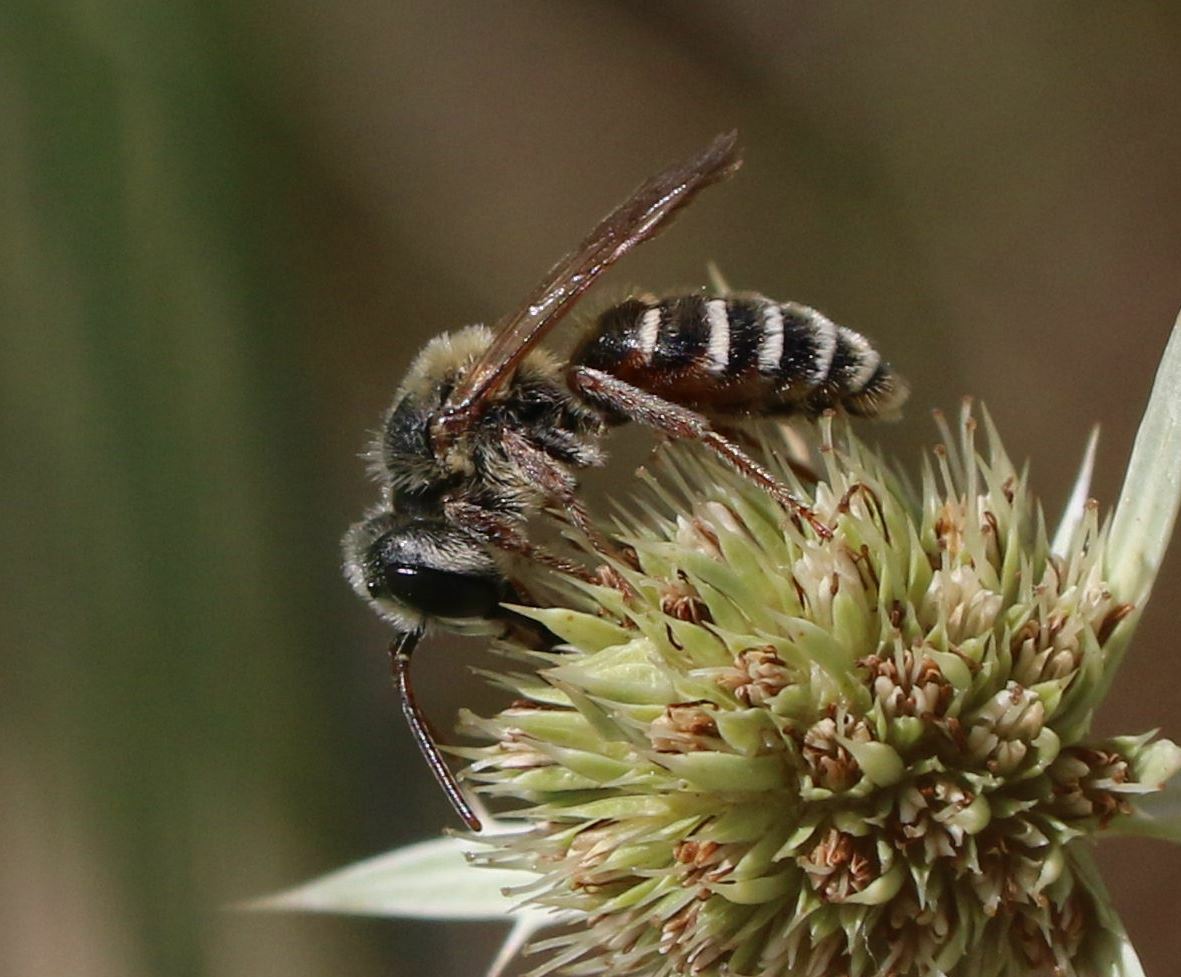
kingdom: Animalia
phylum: Arthropoda
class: Insecta
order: Hymenoptera
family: Andrenidae
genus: Andrena
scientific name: Andrena variabilis
